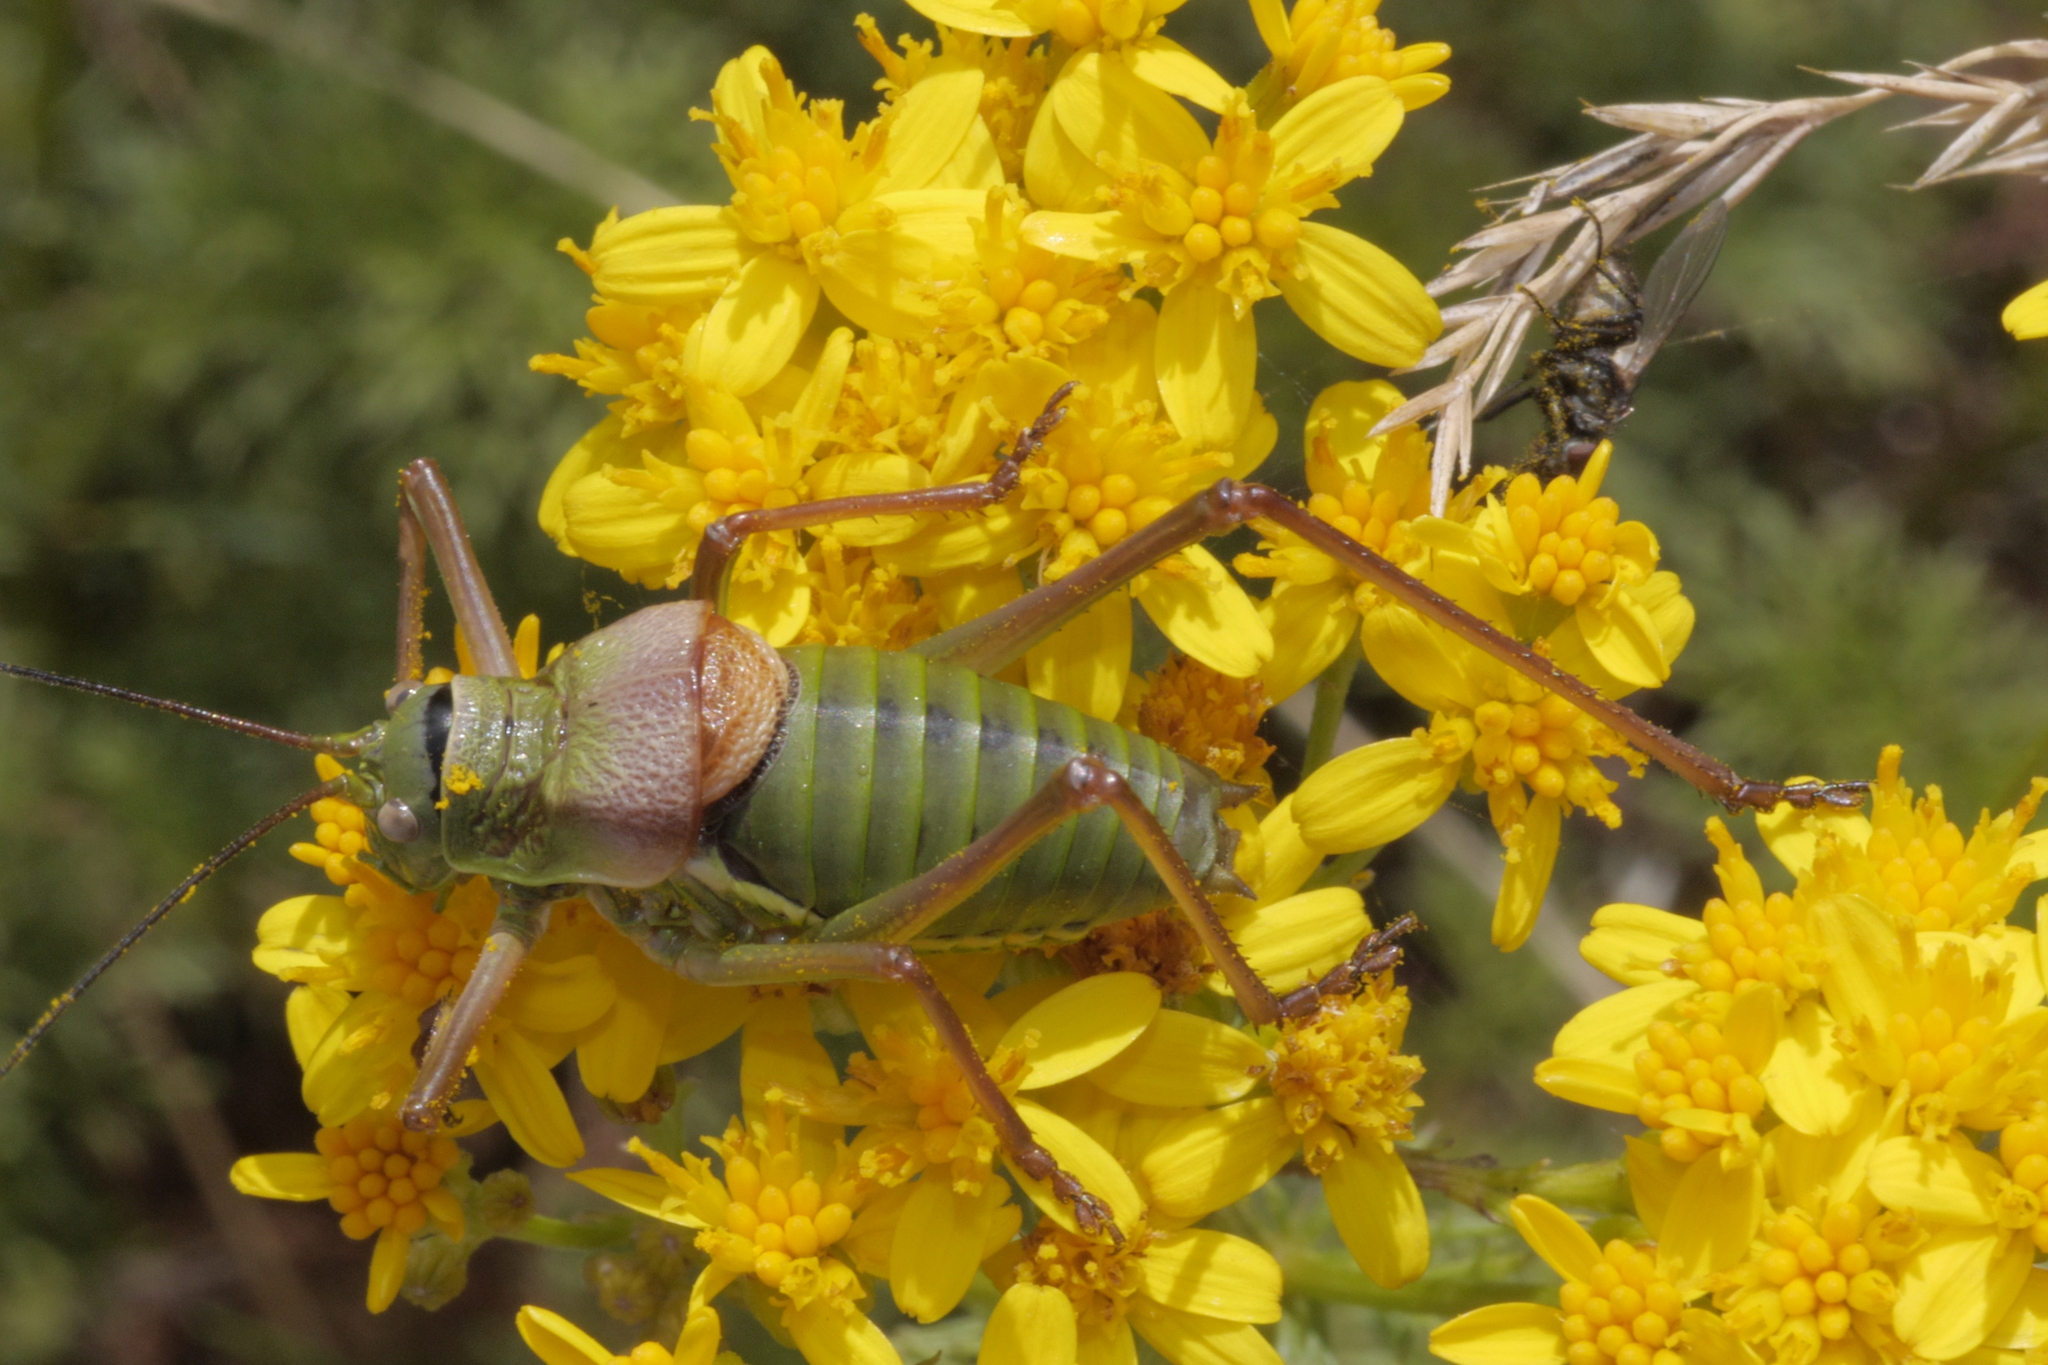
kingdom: Animalia
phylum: Arthropoda
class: Insecta
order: Orthoptera
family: Tettigoniidae
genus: Ephippiger
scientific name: Ephippiger diurnus
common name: Western saddle bush-cricket
